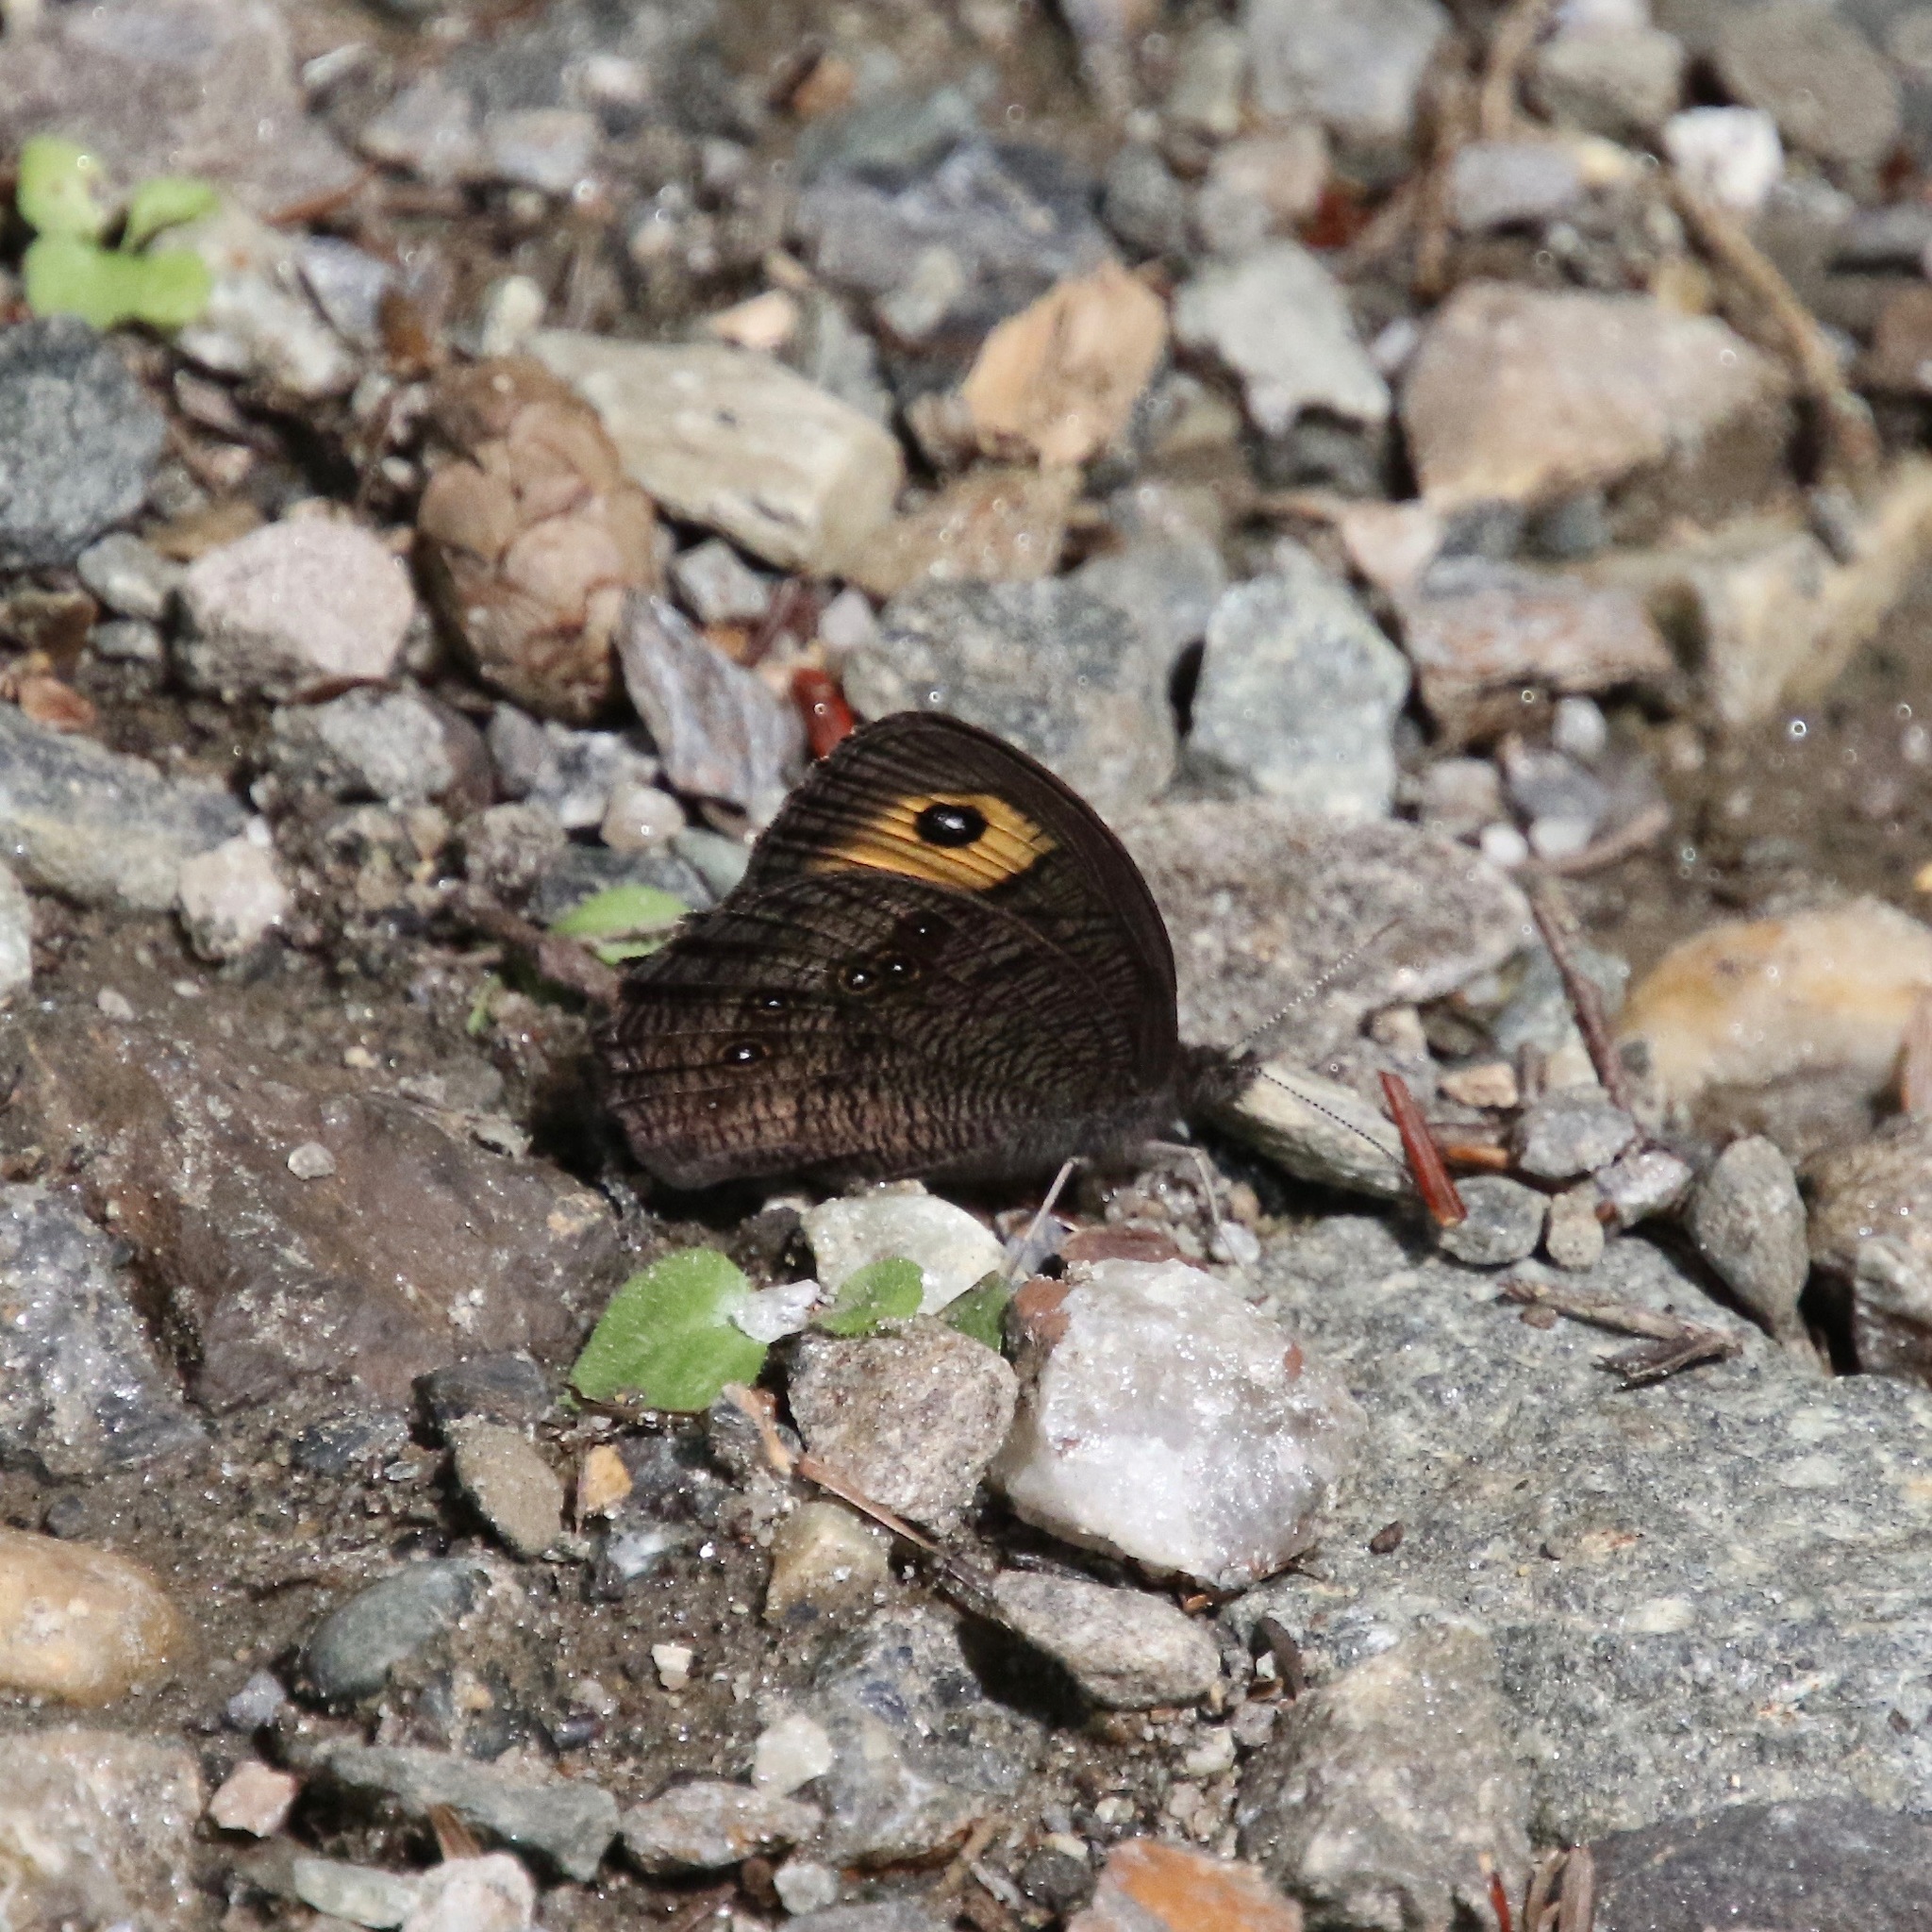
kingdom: Animalia
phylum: Arthropoda
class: Insecta
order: Lepidoptera
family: Nymphalidae
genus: Cercyonis
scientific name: Cercyonis pegala
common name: Common wood-nymph
